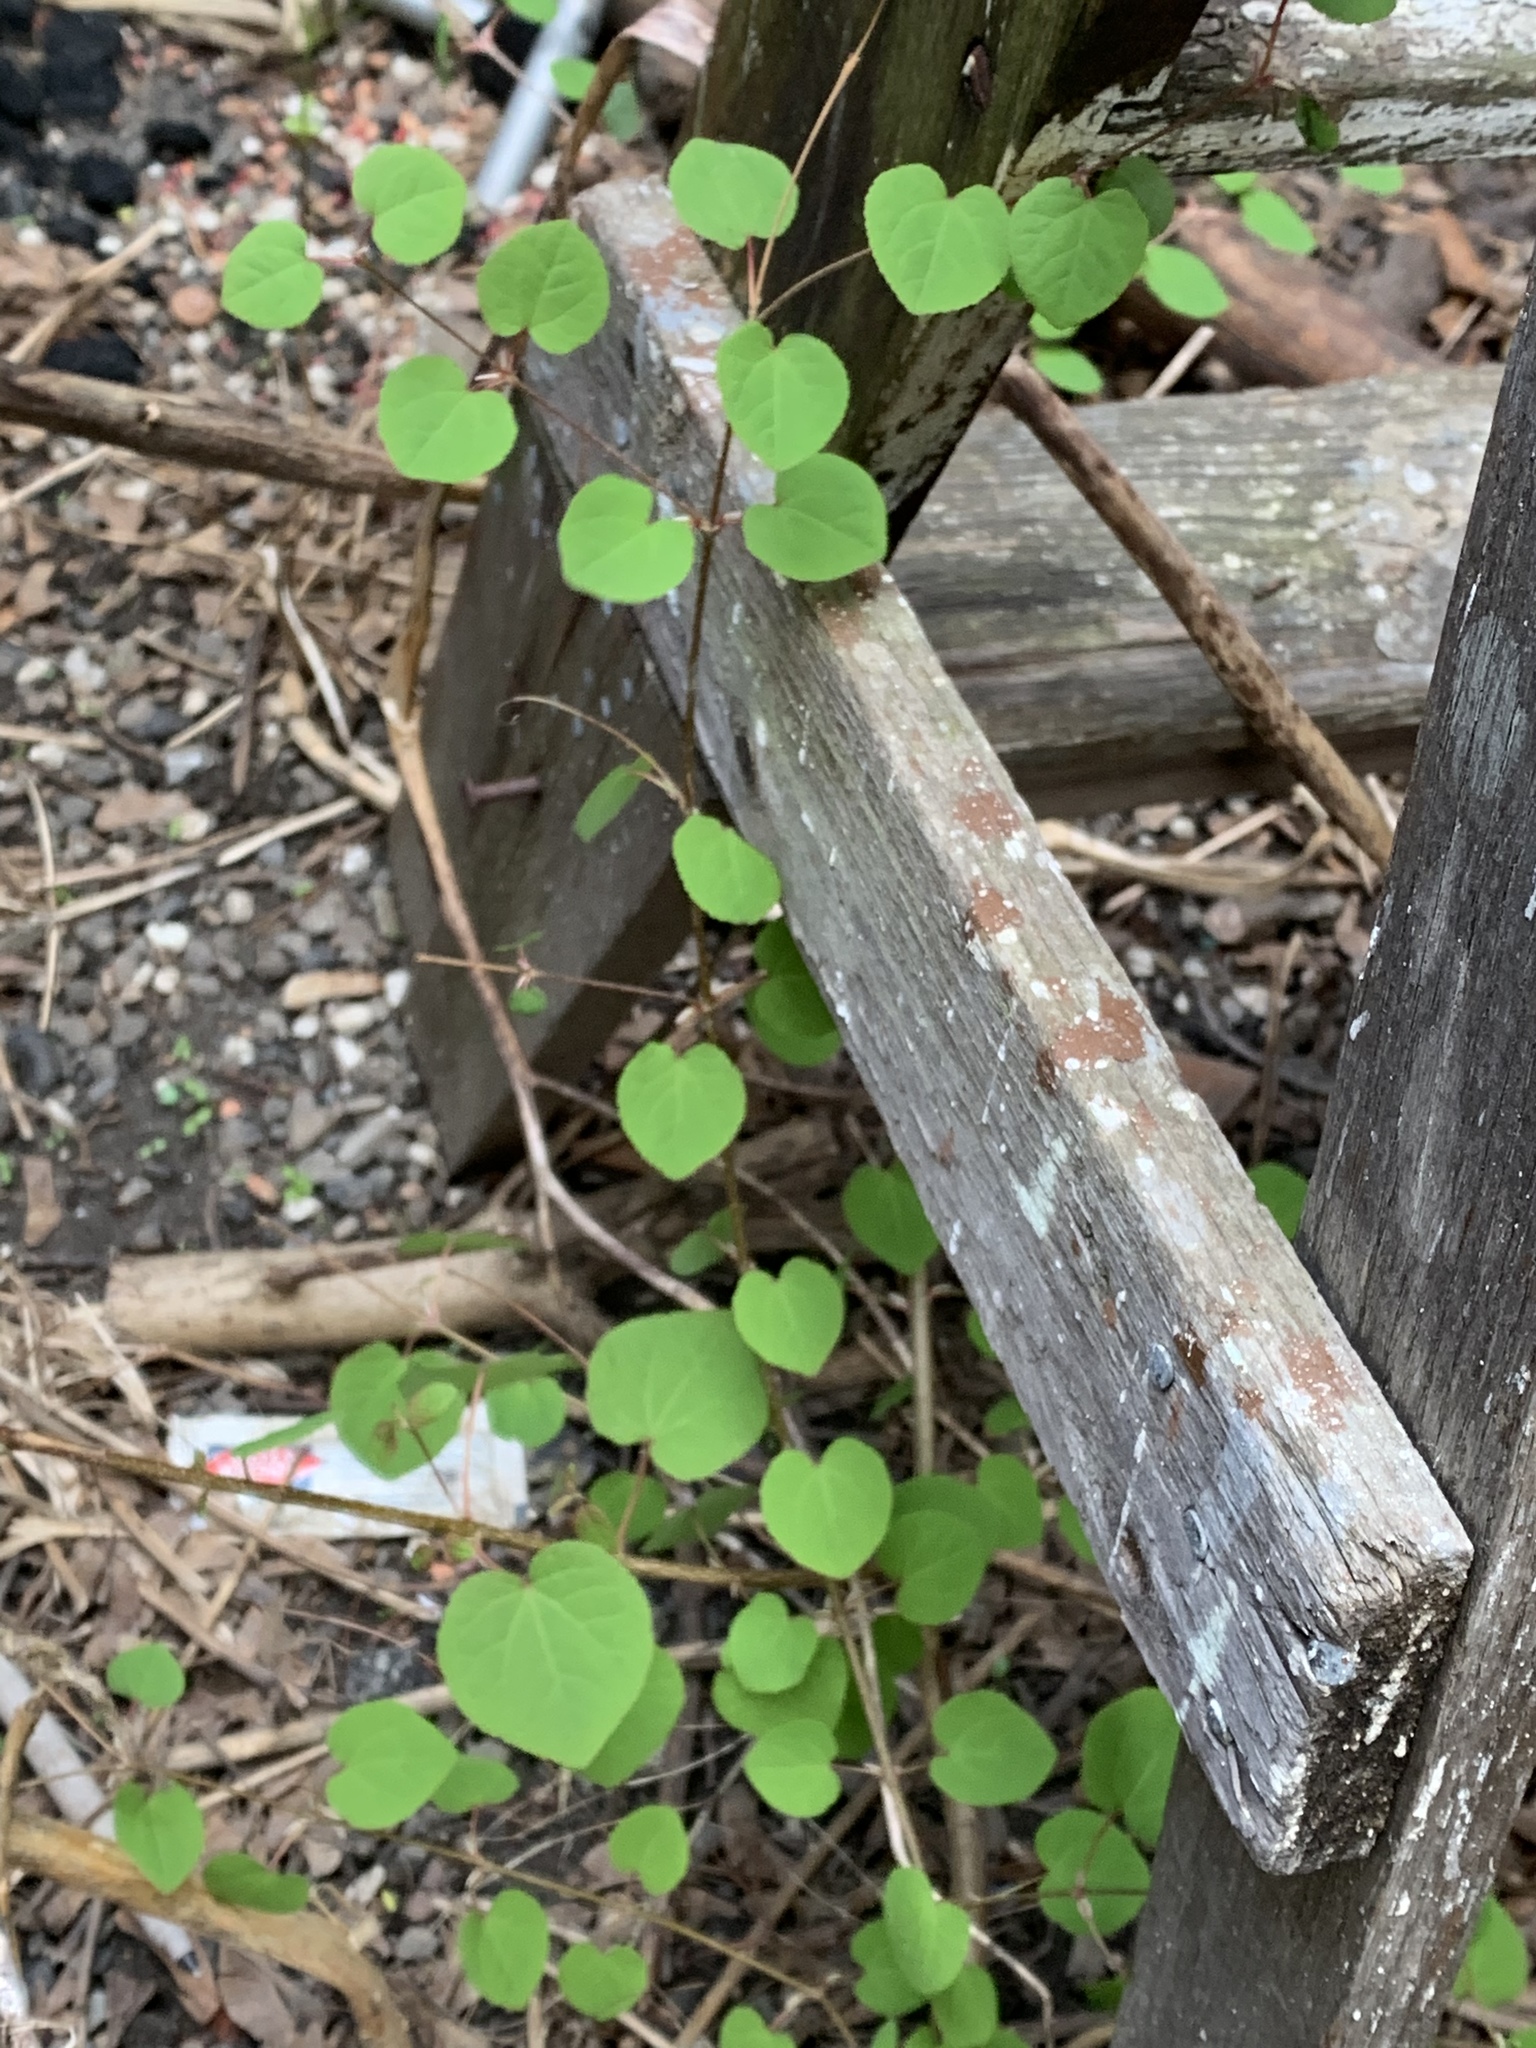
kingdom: Plantae
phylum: Tracheophyta
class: Magnoliopsida
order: Saxifragales
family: Cercidiphyllaceae
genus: Cercidiphyllum
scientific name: Cercidiphyllum japonicum
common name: Katsura tree
